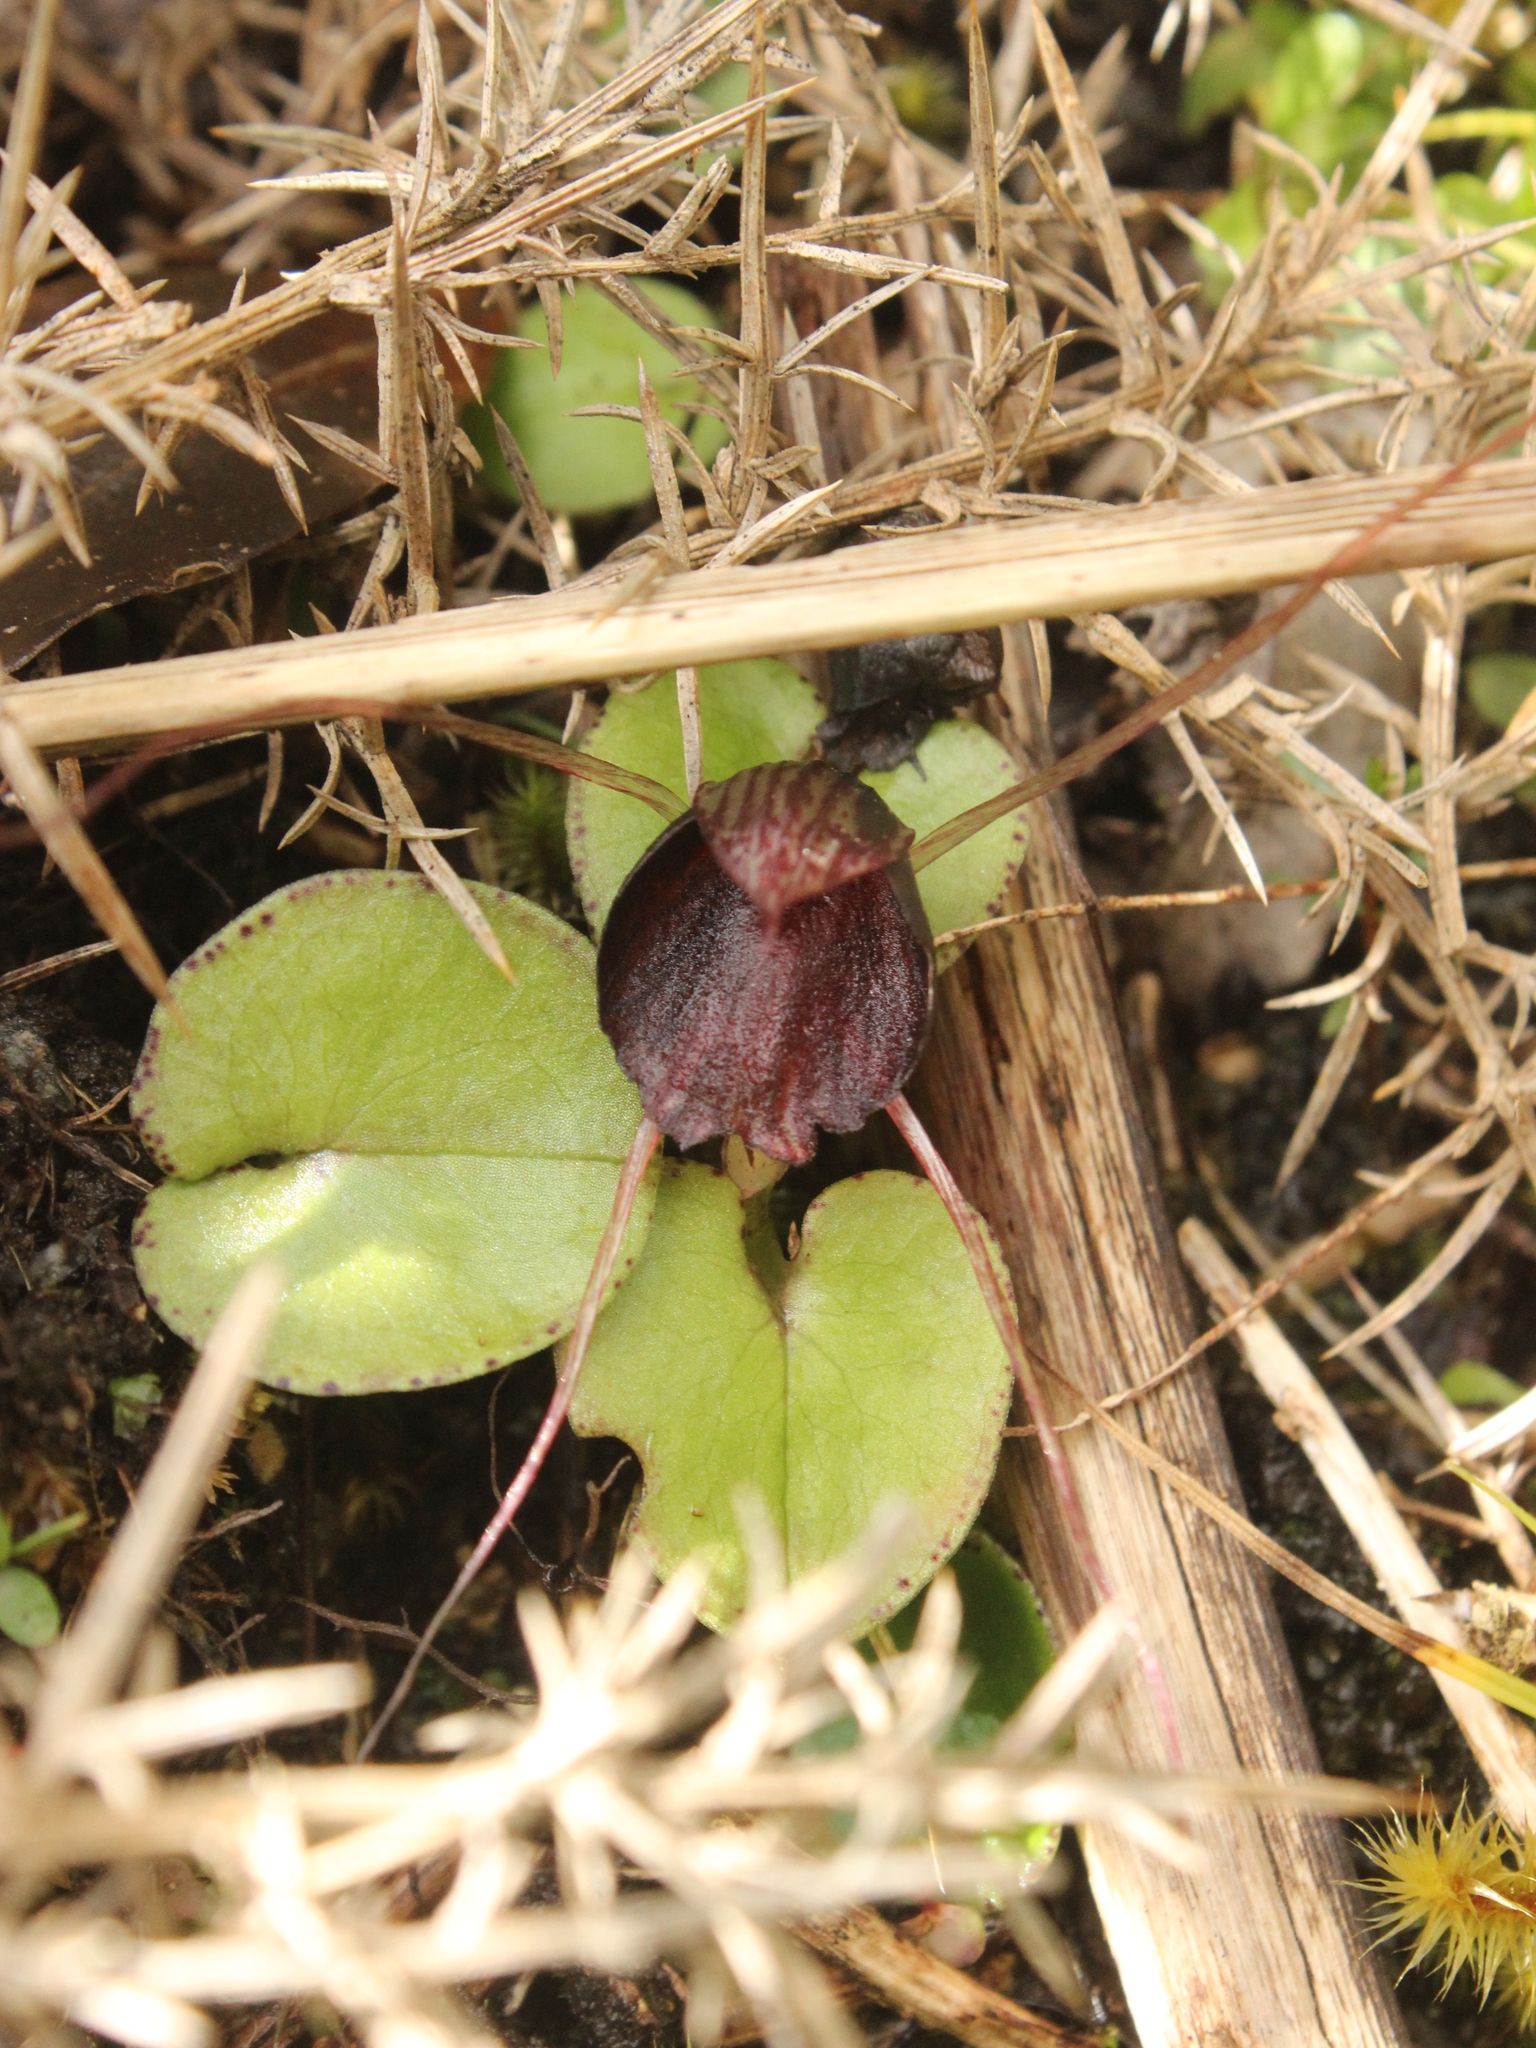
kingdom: Plantae
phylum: Tracheophyta
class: Liliopsida
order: Asparagales
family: Orchidaceae
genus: Corybas
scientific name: Corybas iridescens
